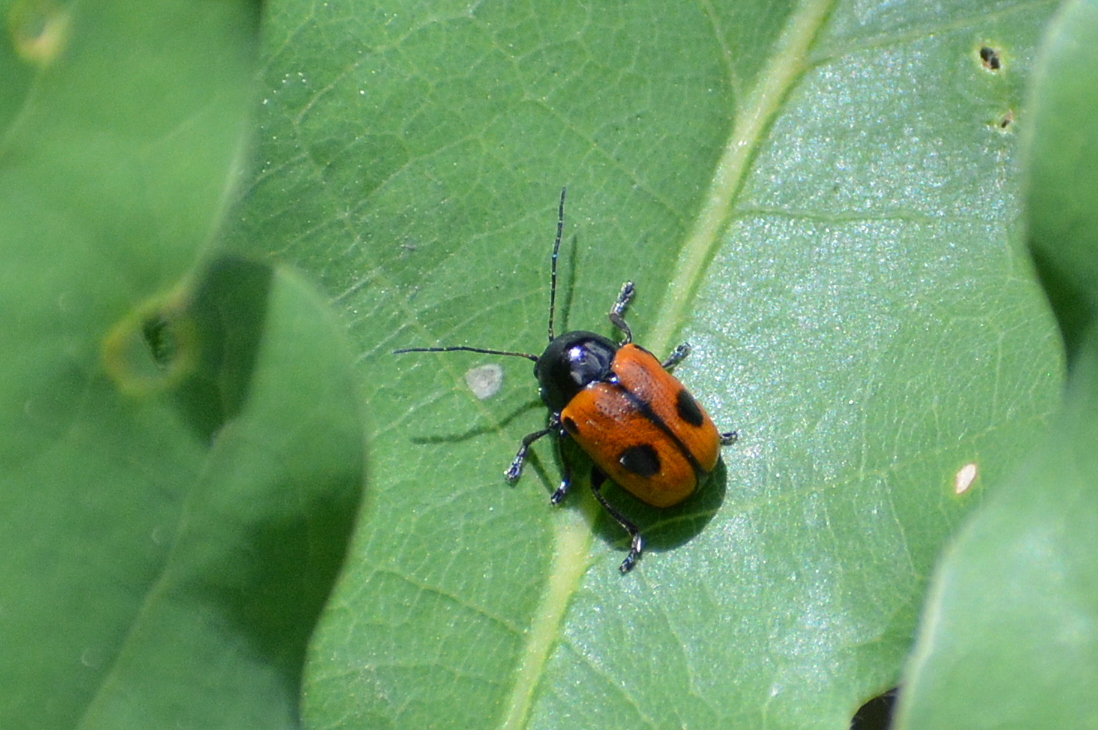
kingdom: Animalia
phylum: Arthropoda
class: Insecta
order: Coleoptera
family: Chrysomelidae
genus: Chiridopsis
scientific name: Chiridopsis bipunctata
